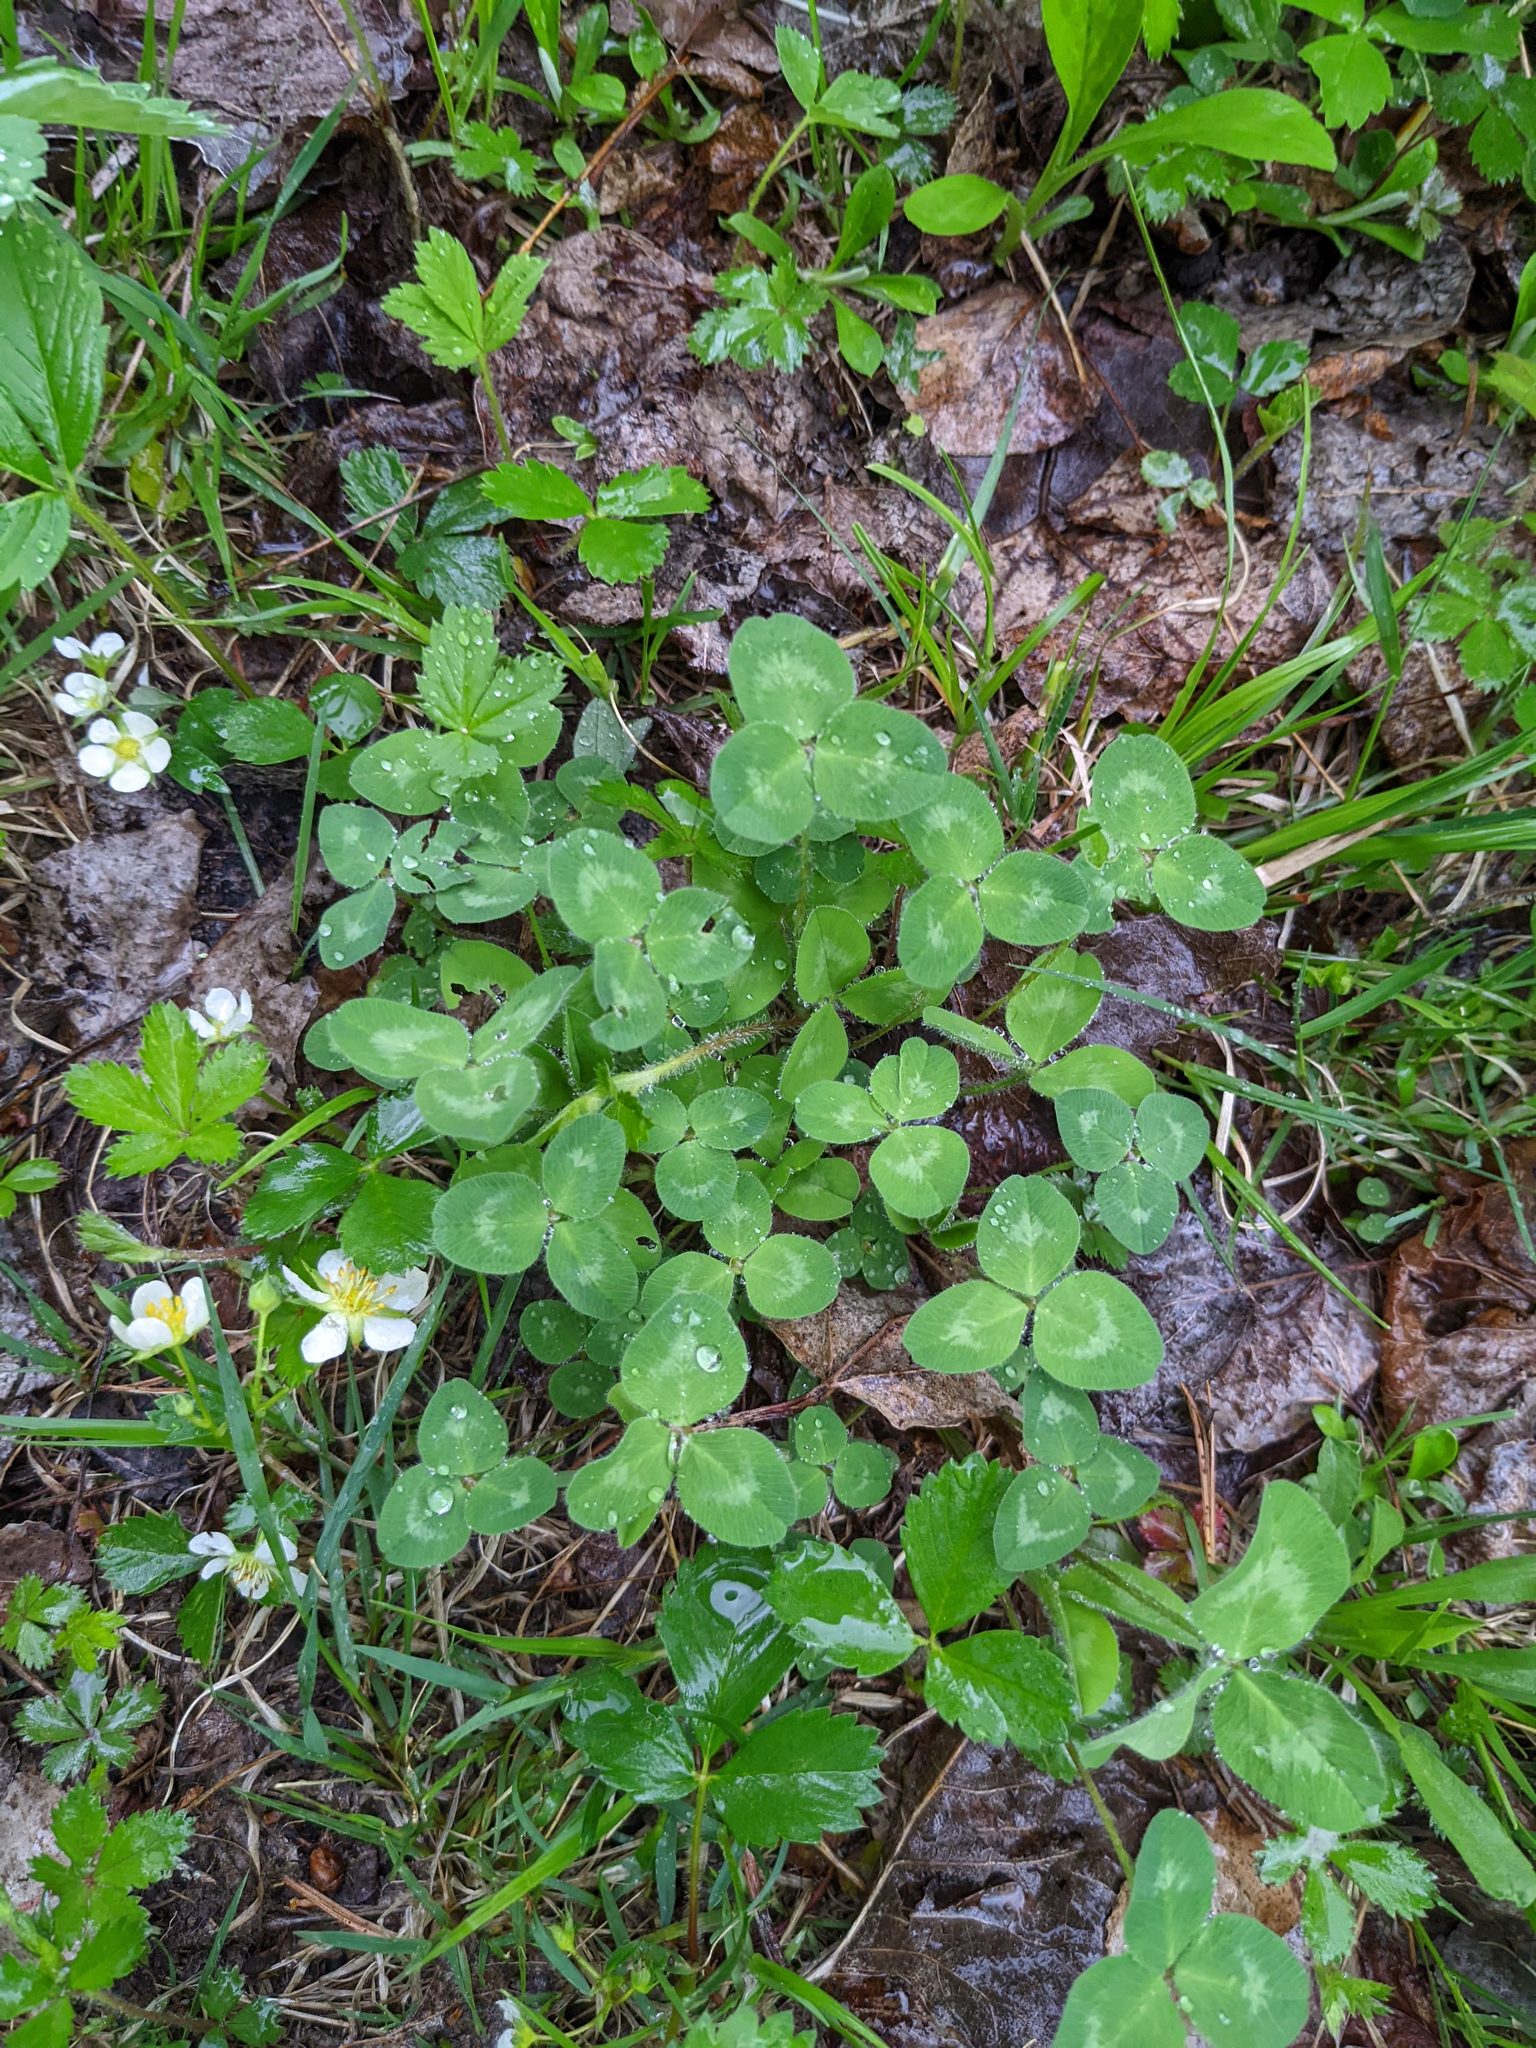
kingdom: Plantae
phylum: Tracheophyta
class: Magnoliopsida
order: Fabales
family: Fabaceae
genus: Trifolium
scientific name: Trifolium pratense
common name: Red clover
